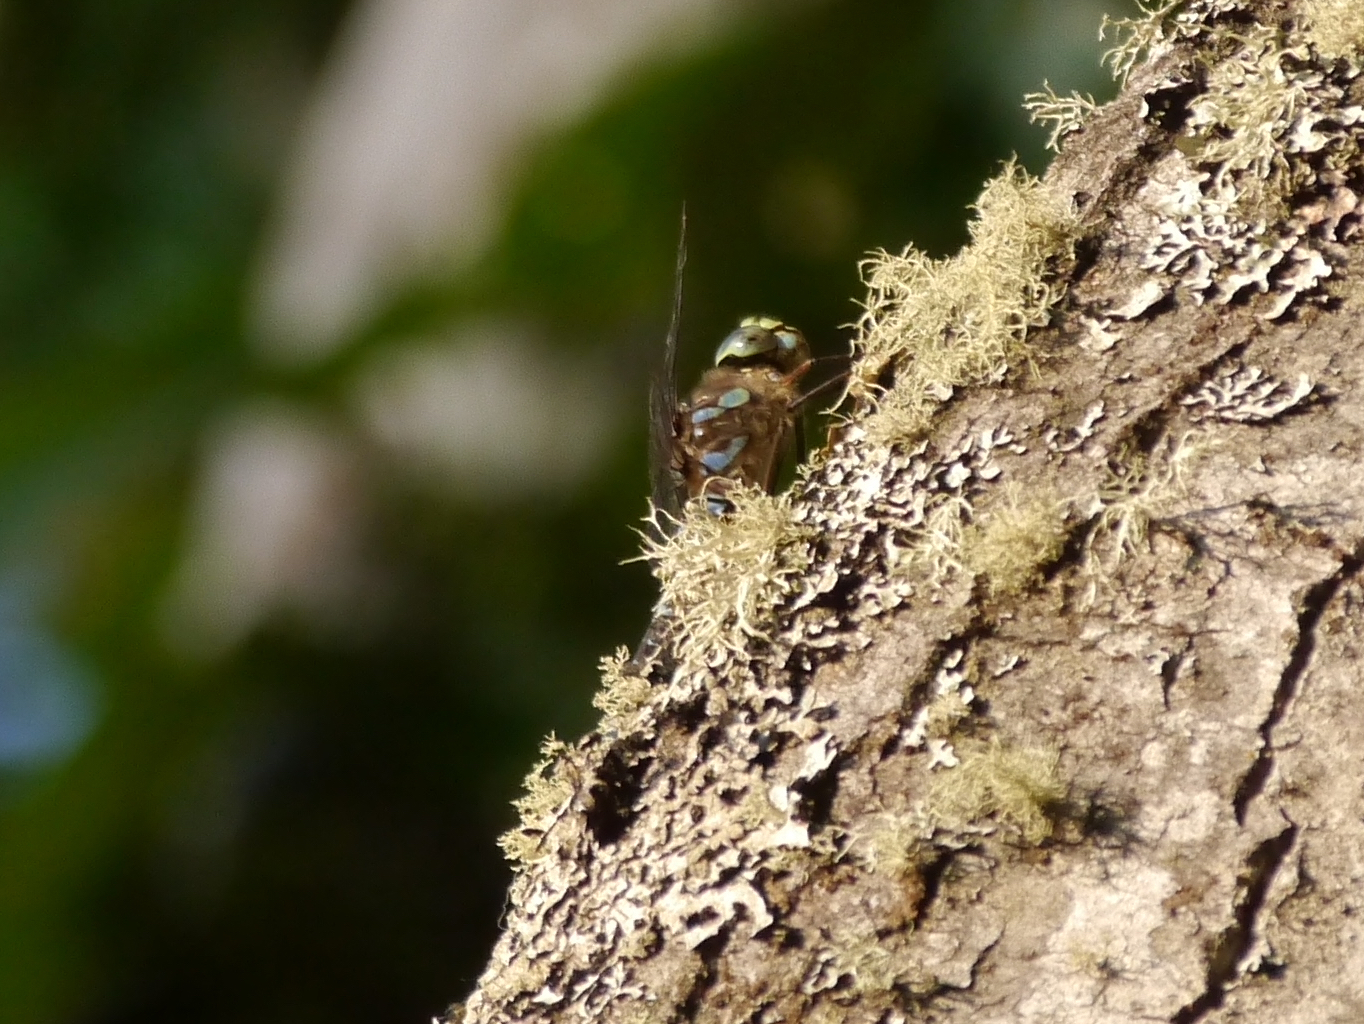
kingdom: Animalia
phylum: Arthropoda
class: Insecta
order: Odonata
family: Aeshnidae
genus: Aeshna
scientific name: Aeshna eremita
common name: Lake darner
